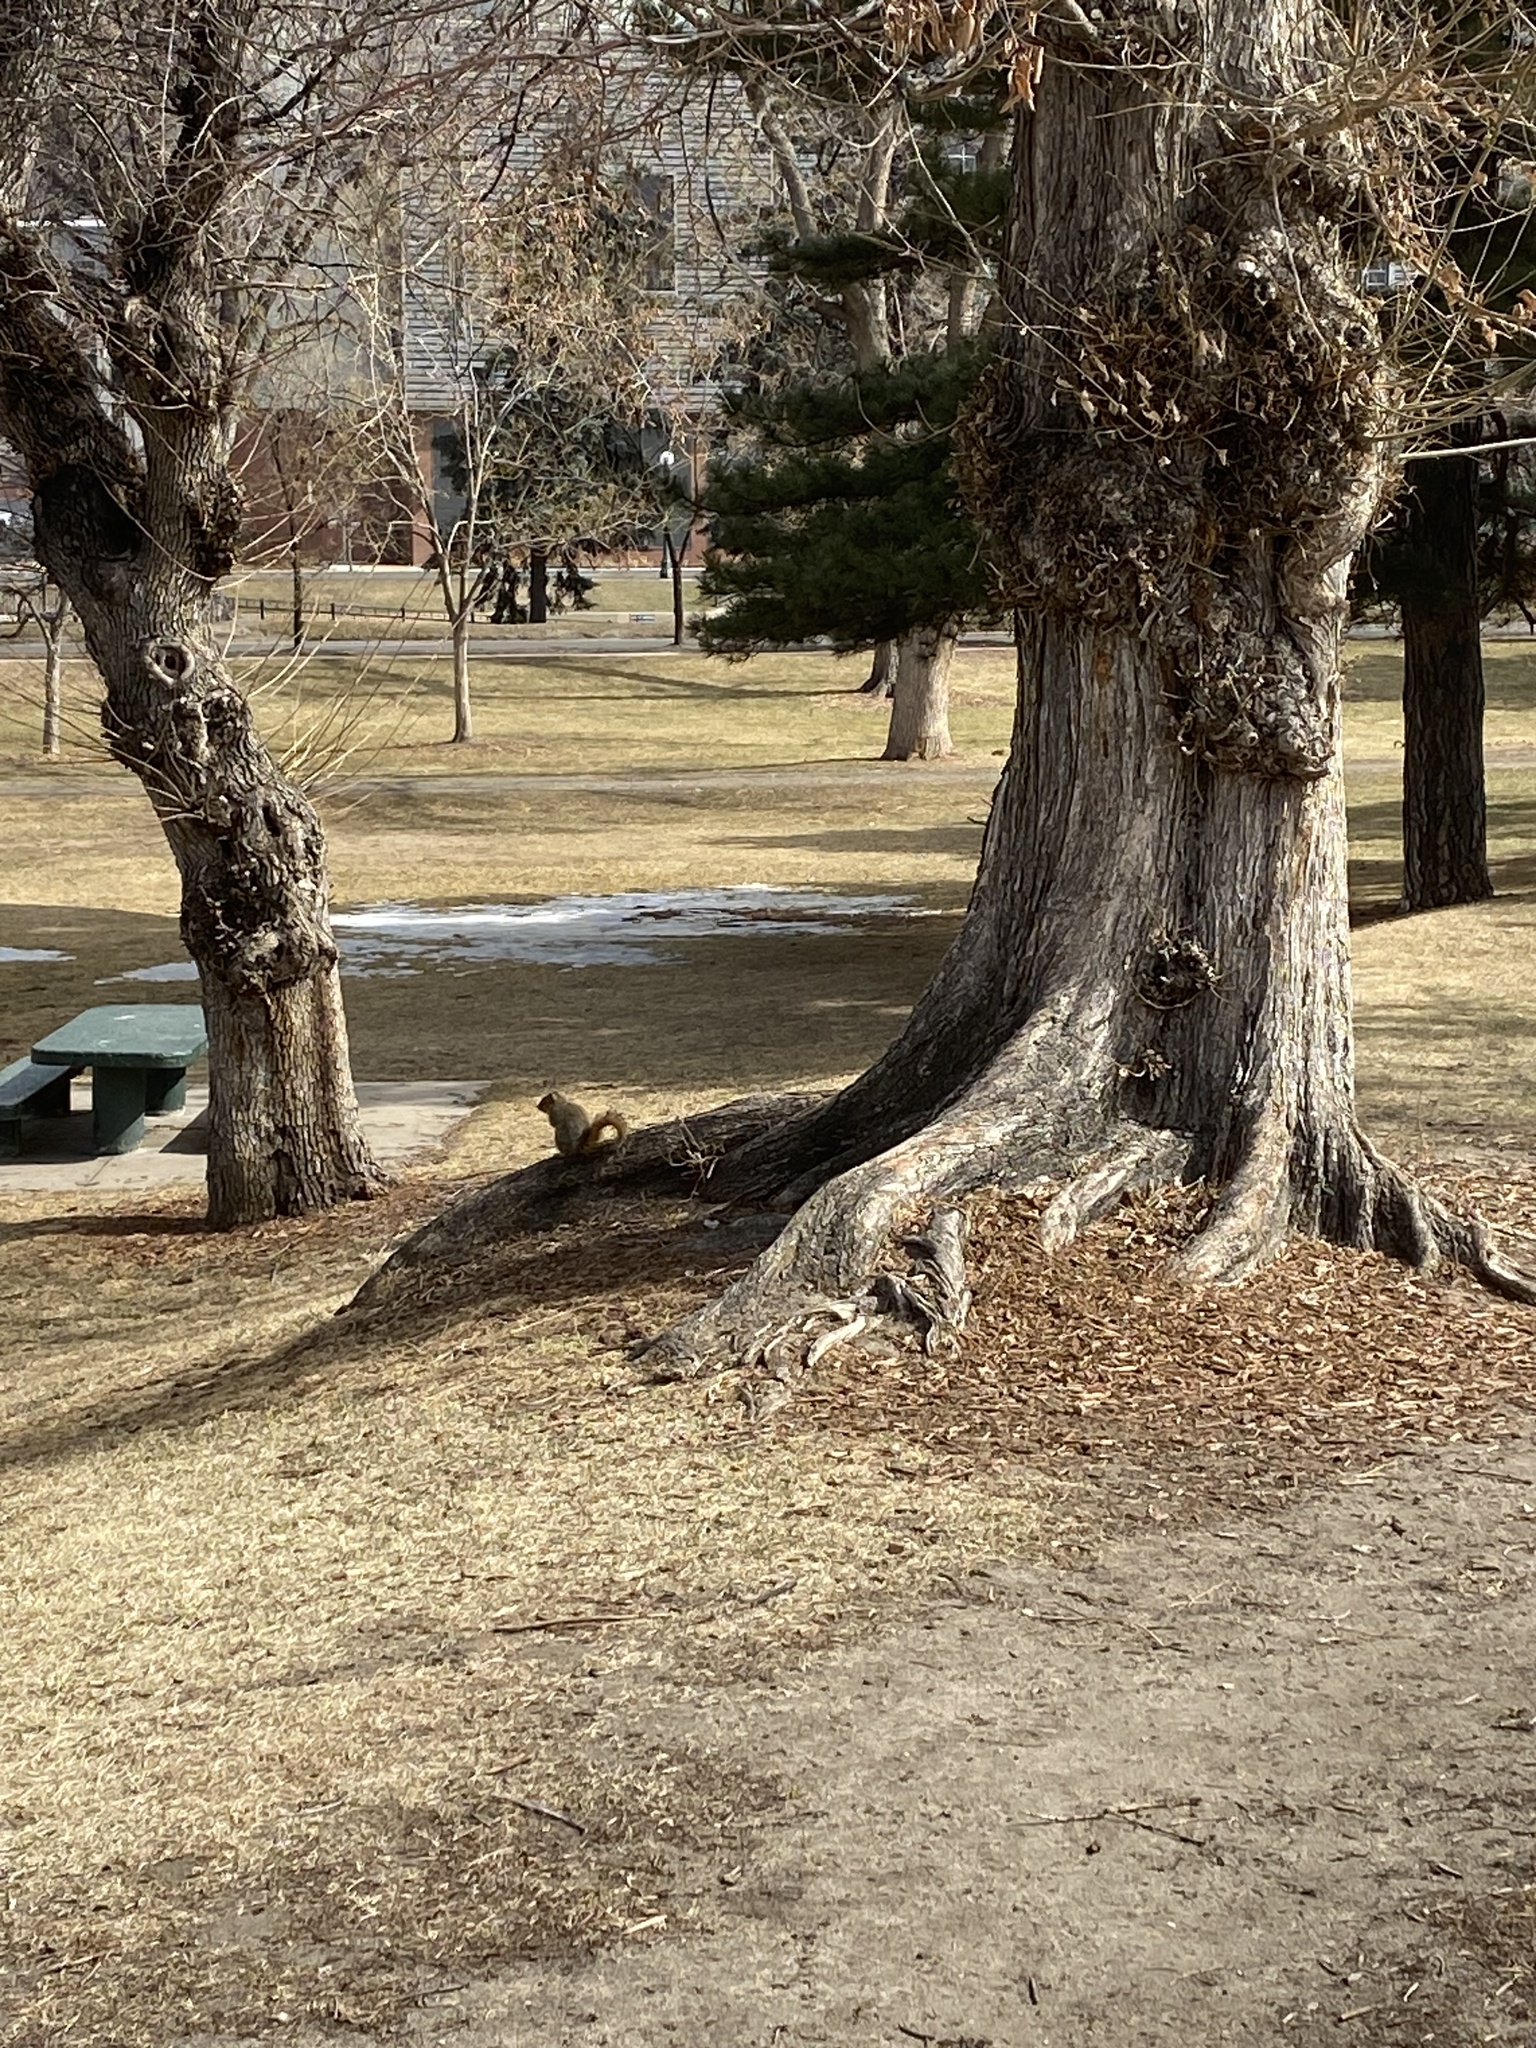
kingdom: Animalia
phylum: Chordata
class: Mammalia
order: Rodentia
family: Sciuridae
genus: Sciurus
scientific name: Sciurus niger
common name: Fox squirrel
